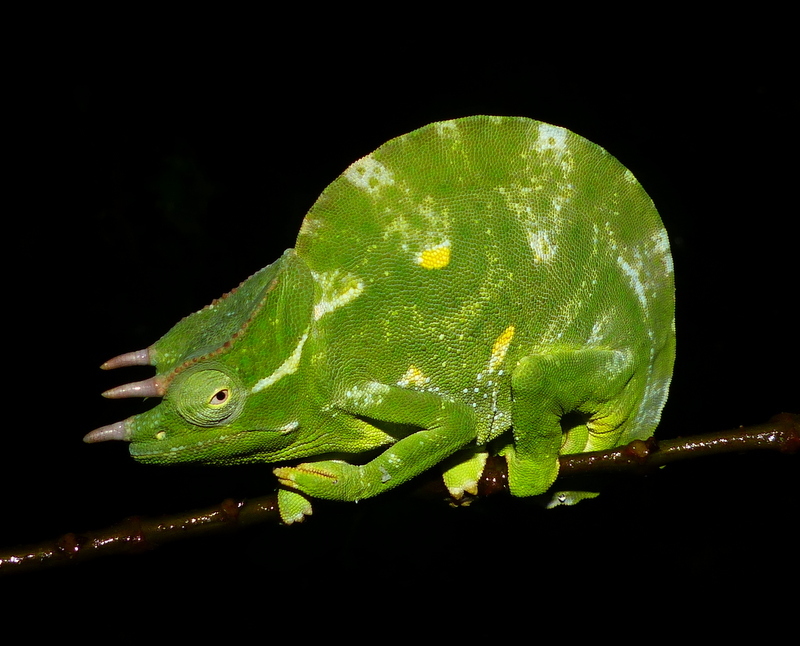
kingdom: Animalia
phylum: Chordata
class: Squamata
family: Chamaeleonidae
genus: Trioceros
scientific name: Trioceros deremensis
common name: Wavy chameleon
